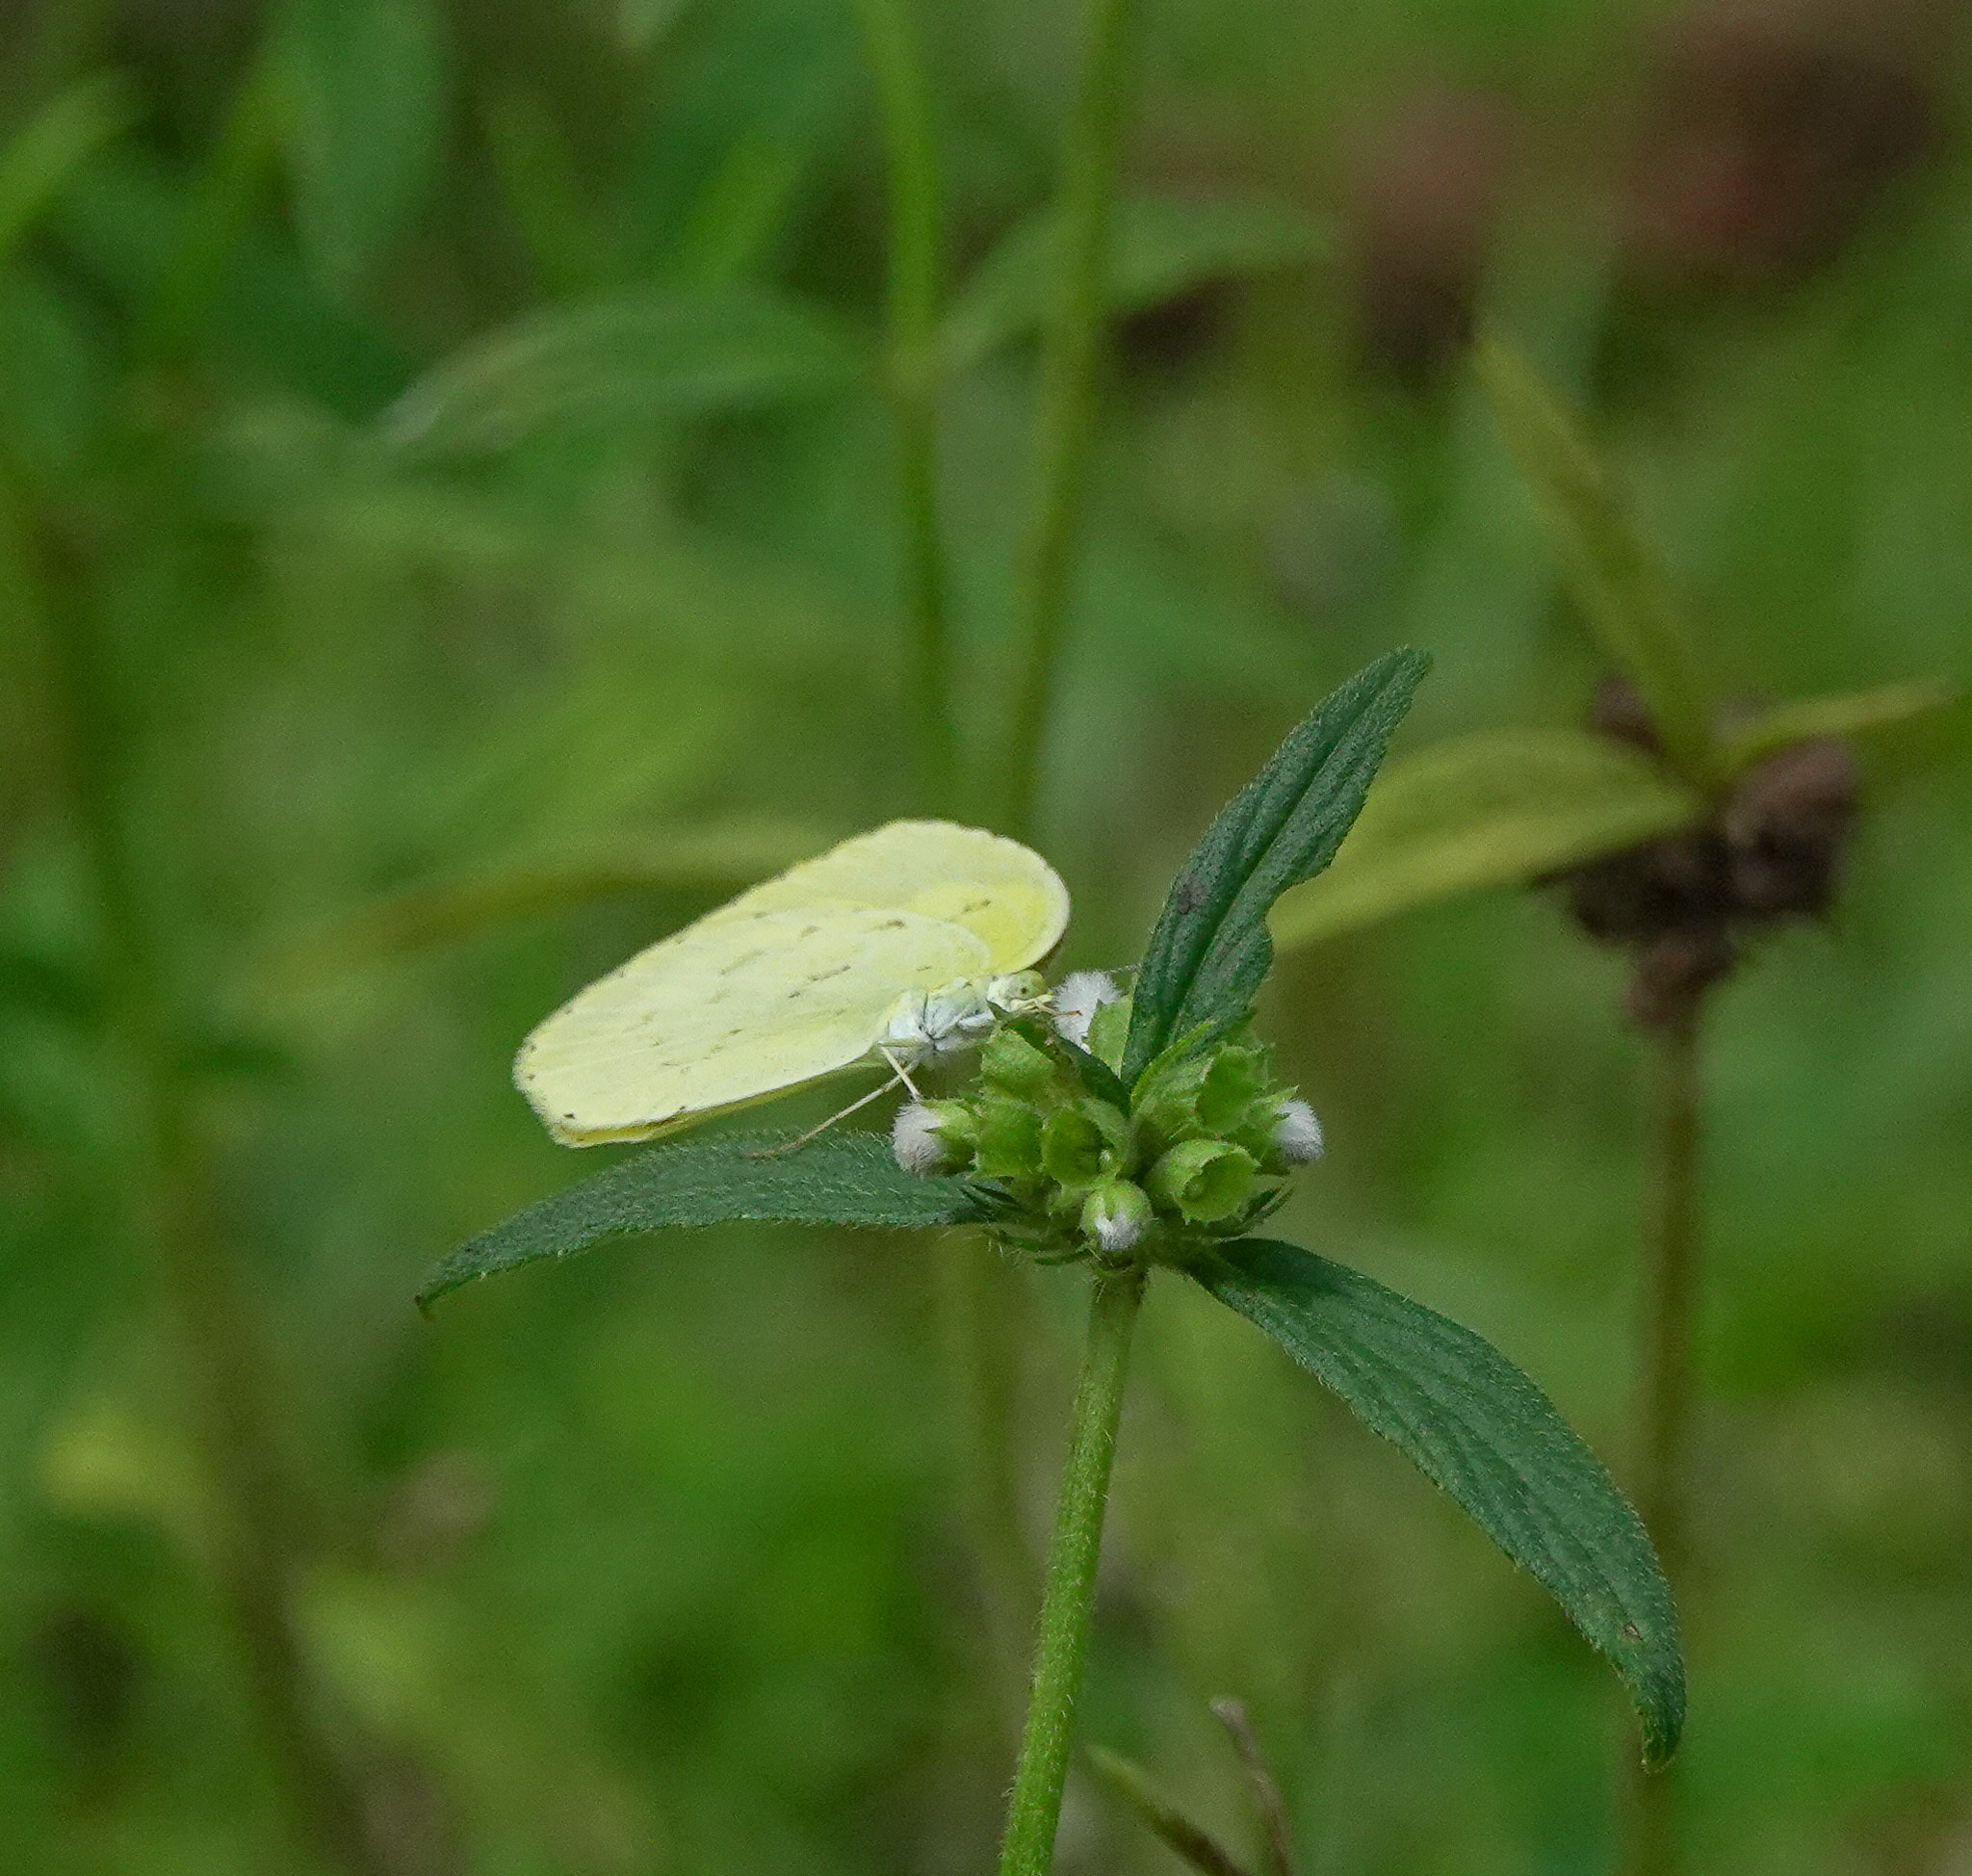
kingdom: Animalia
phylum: Arthropoda
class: Insecta
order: Lepidoptera
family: Pieridae
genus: Eurema
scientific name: Eurema hecabe
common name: Pale grass yellow
